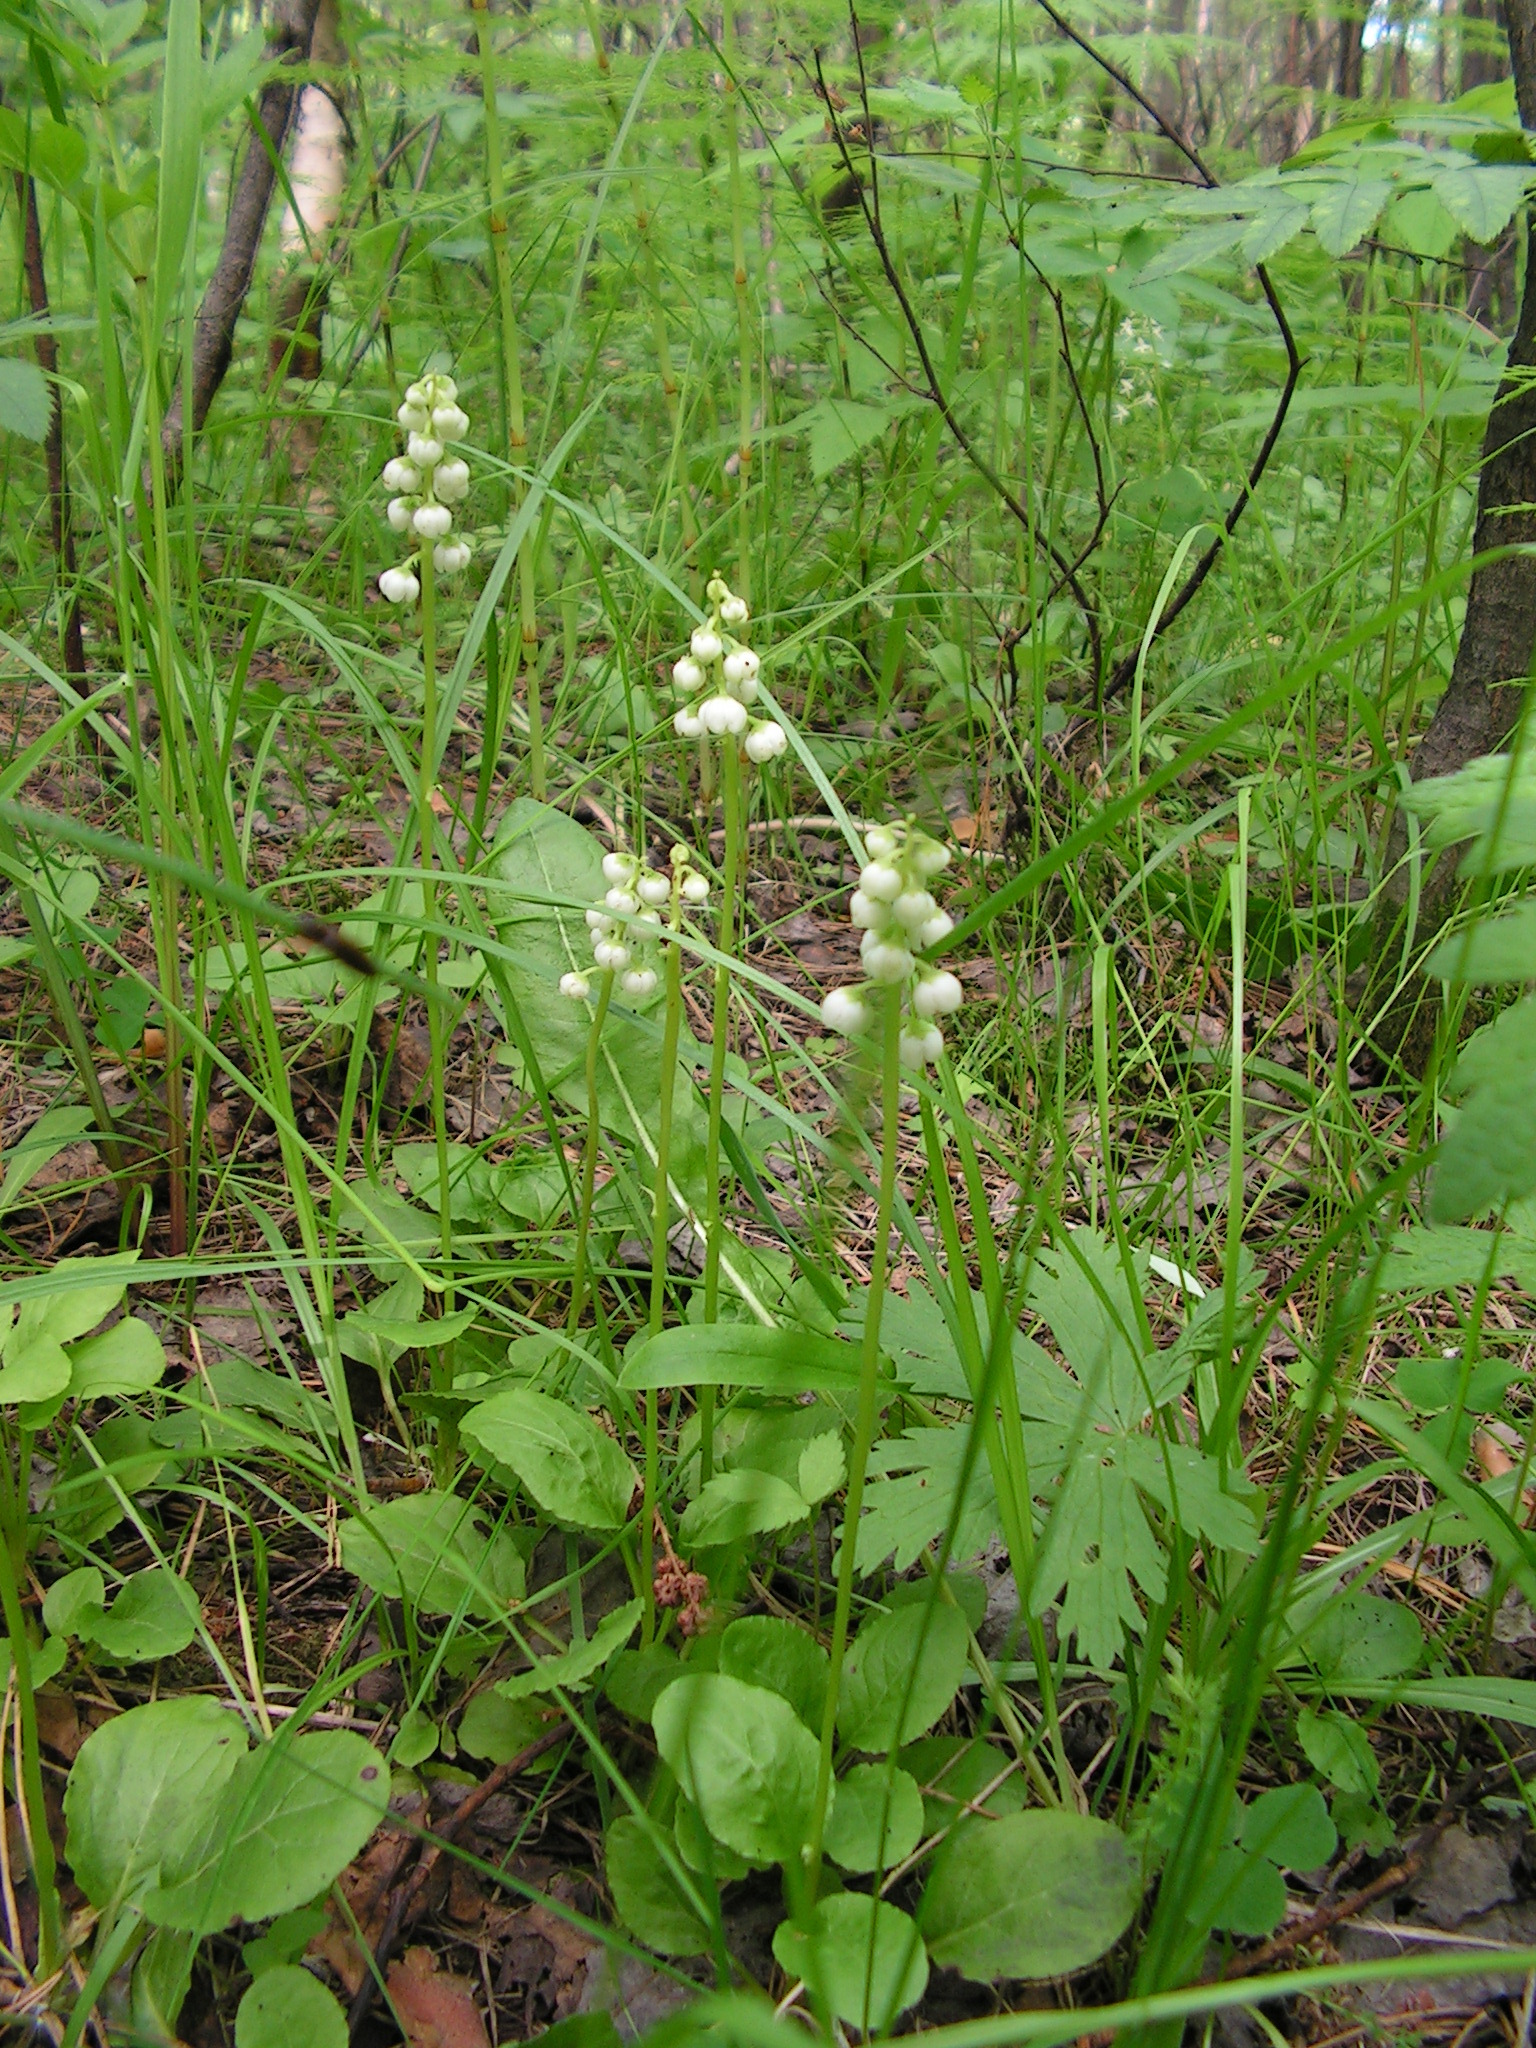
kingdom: Plantae
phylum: Tracheophyta
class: Magnoliopsida
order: Ericales
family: Ericaceae
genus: Pyrola
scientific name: Pyrola minor
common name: Common wintergreen
